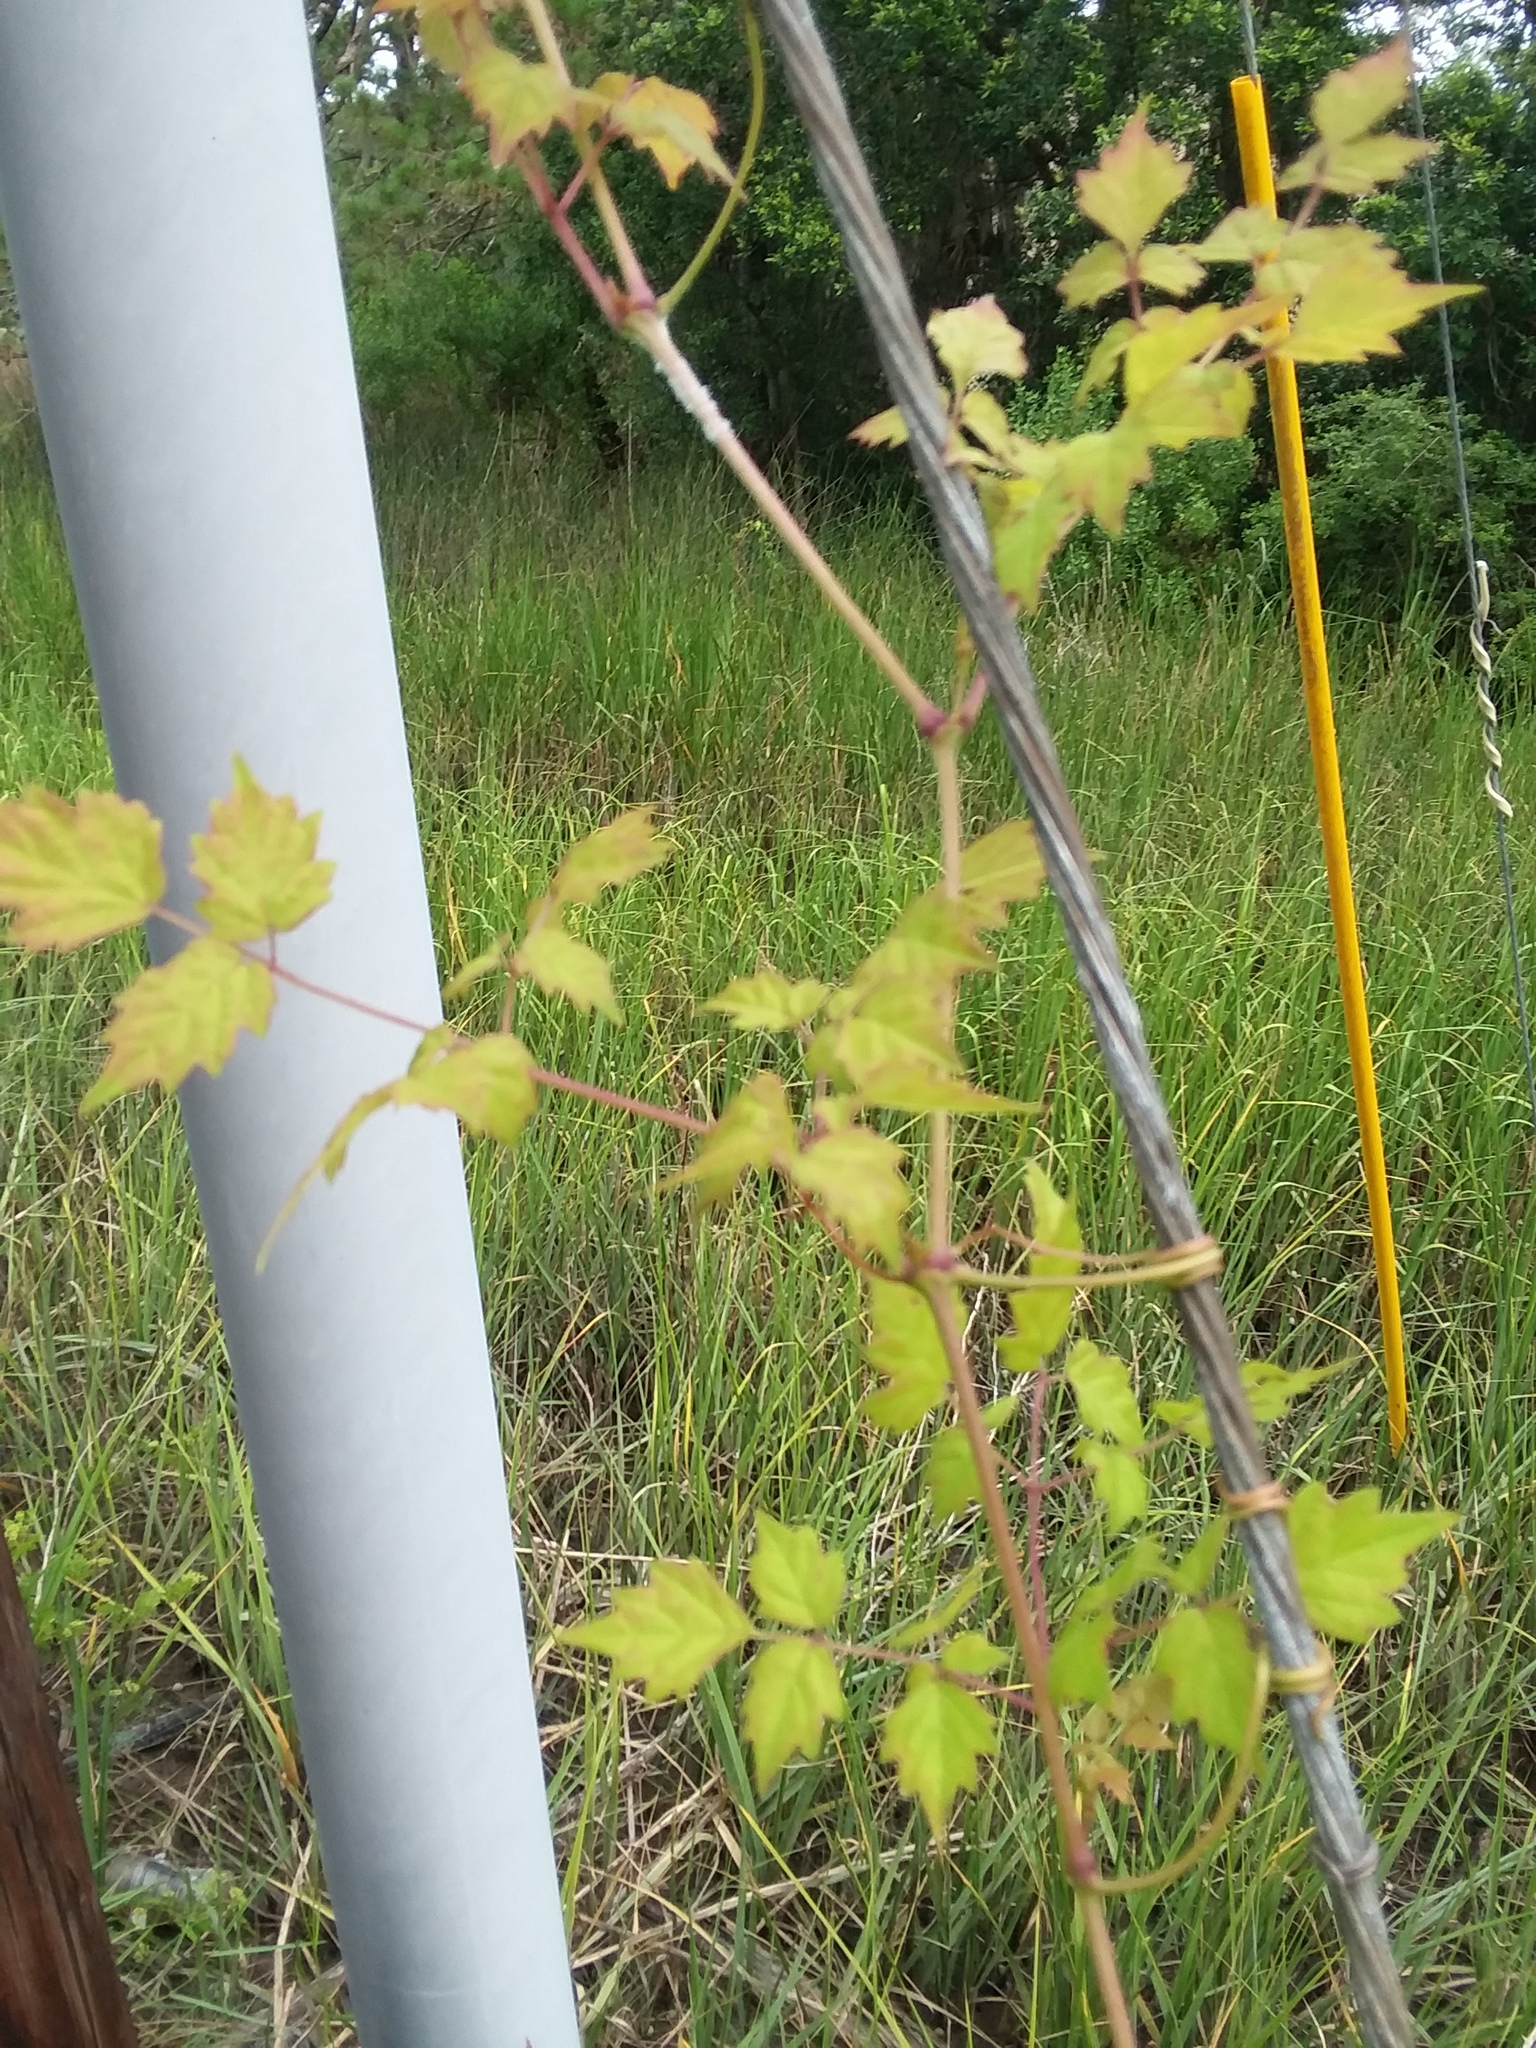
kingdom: Plantae
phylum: Tracheophyta
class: Magnoliopsida
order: Vitales
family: Vitaceae
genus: Nekemias
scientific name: Nekemias arborea
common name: Peppervine
